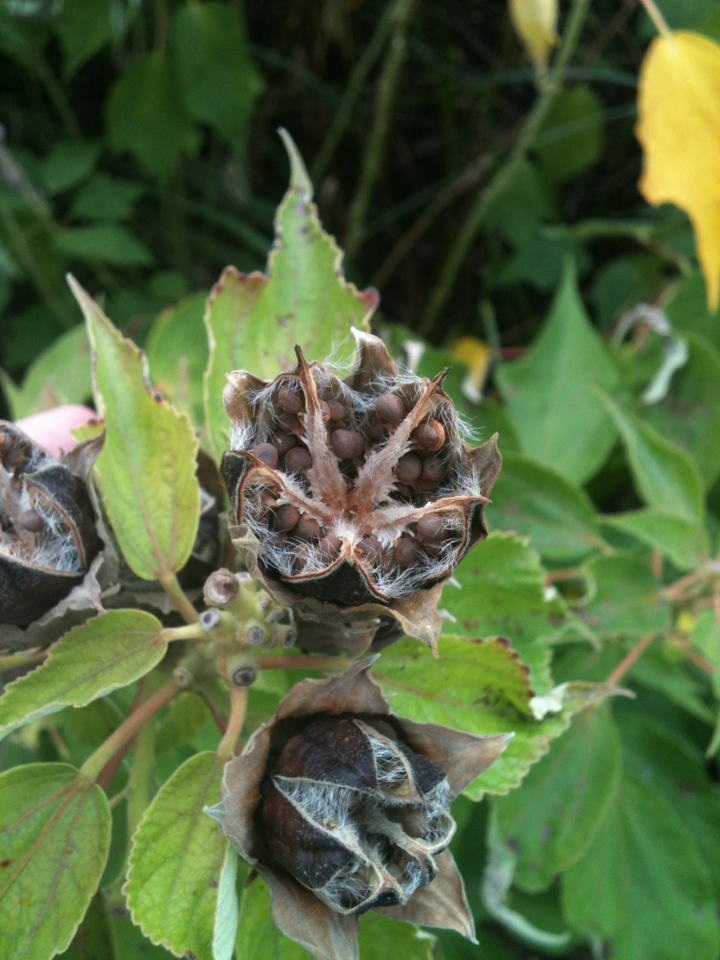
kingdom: Plantae
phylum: Tracheophyta
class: Magnoliopsida
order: Malvales
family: Malvaceae
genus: Hibiscus
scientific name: Hibiscus moscheutos
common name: Common rose-mallow
